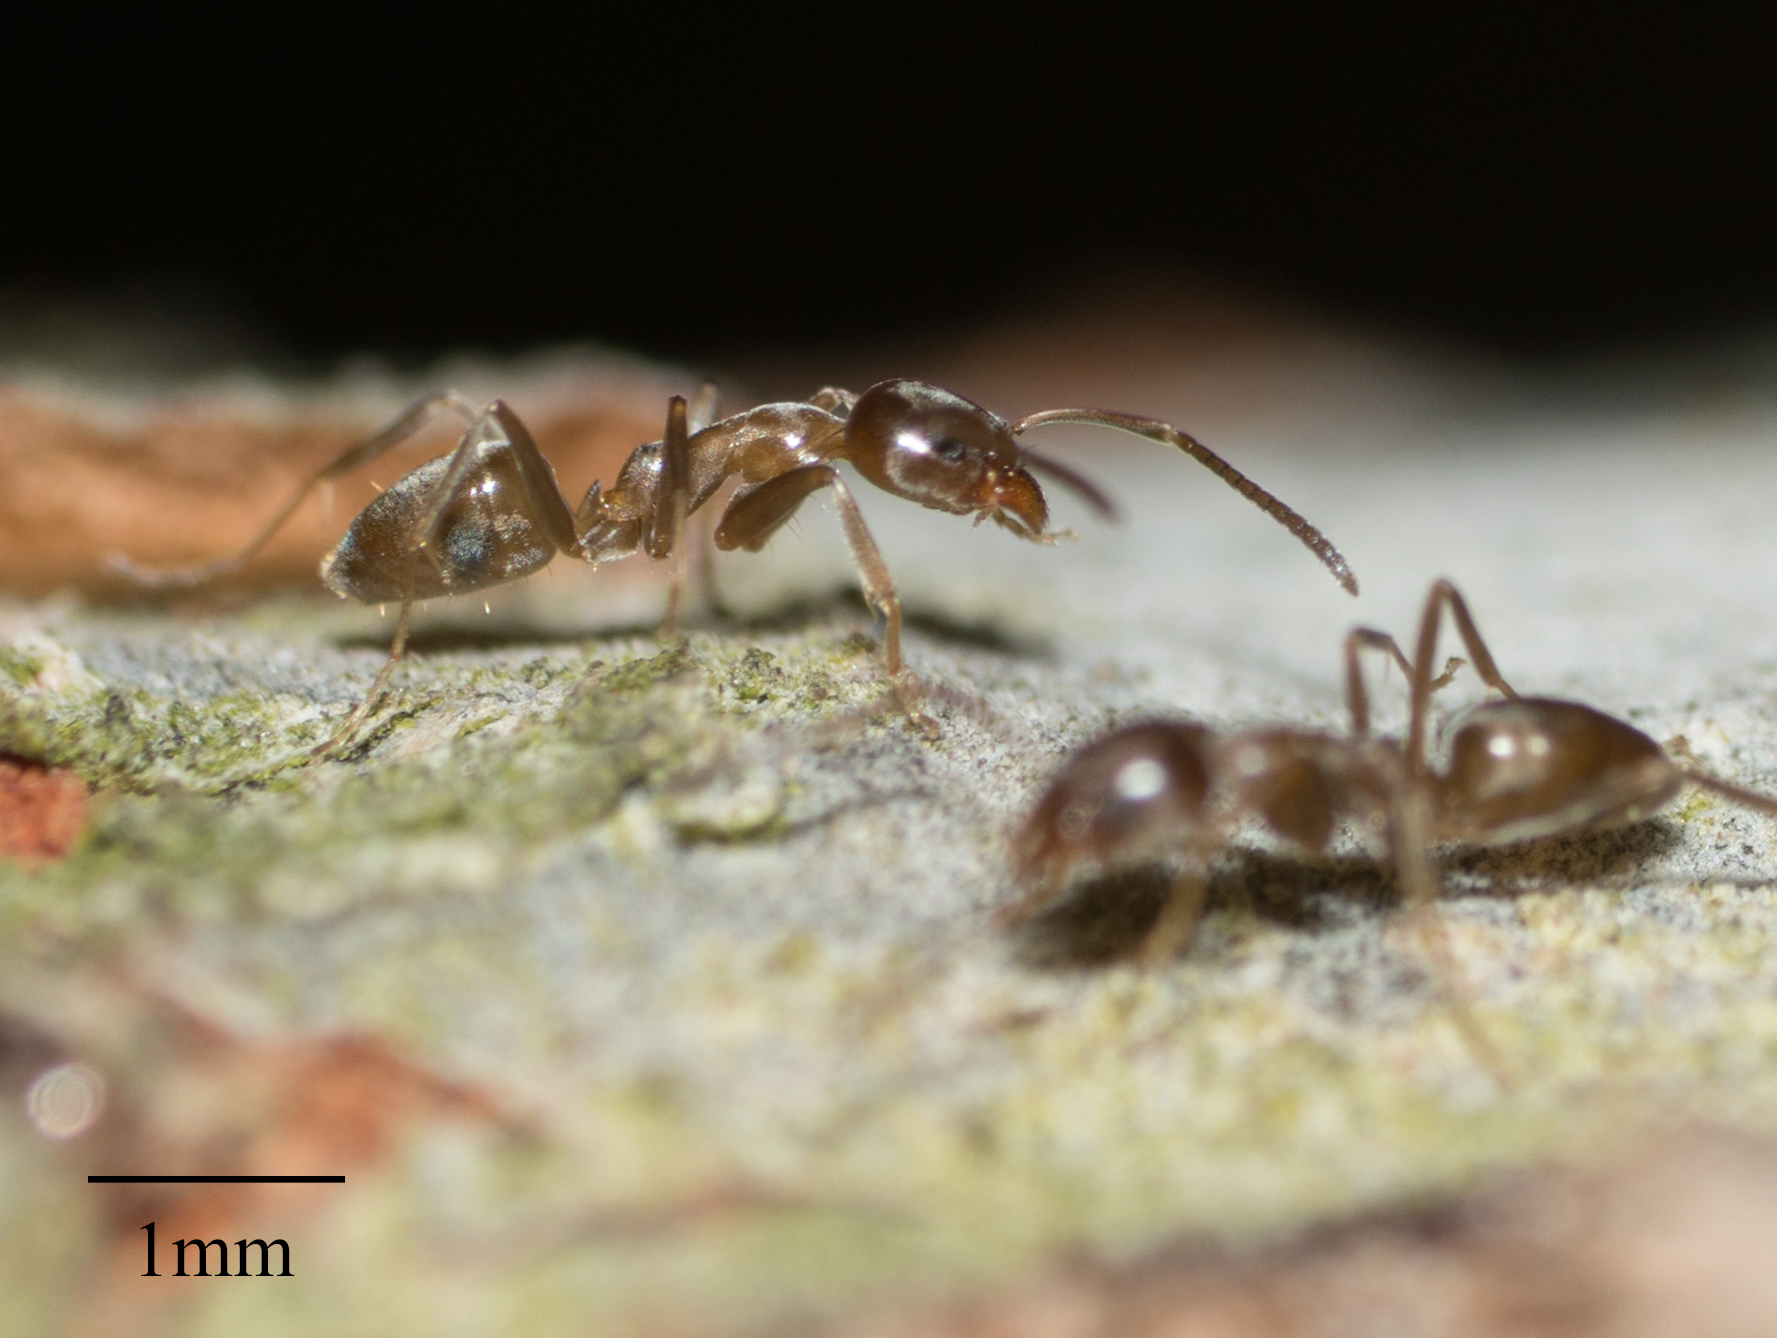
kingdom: Animalia
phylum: Arthropoda
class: Insecta
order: Hymenoptera
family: Formicidae
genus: Linepithema
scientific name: Linepithema humile
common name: Argentine ant
